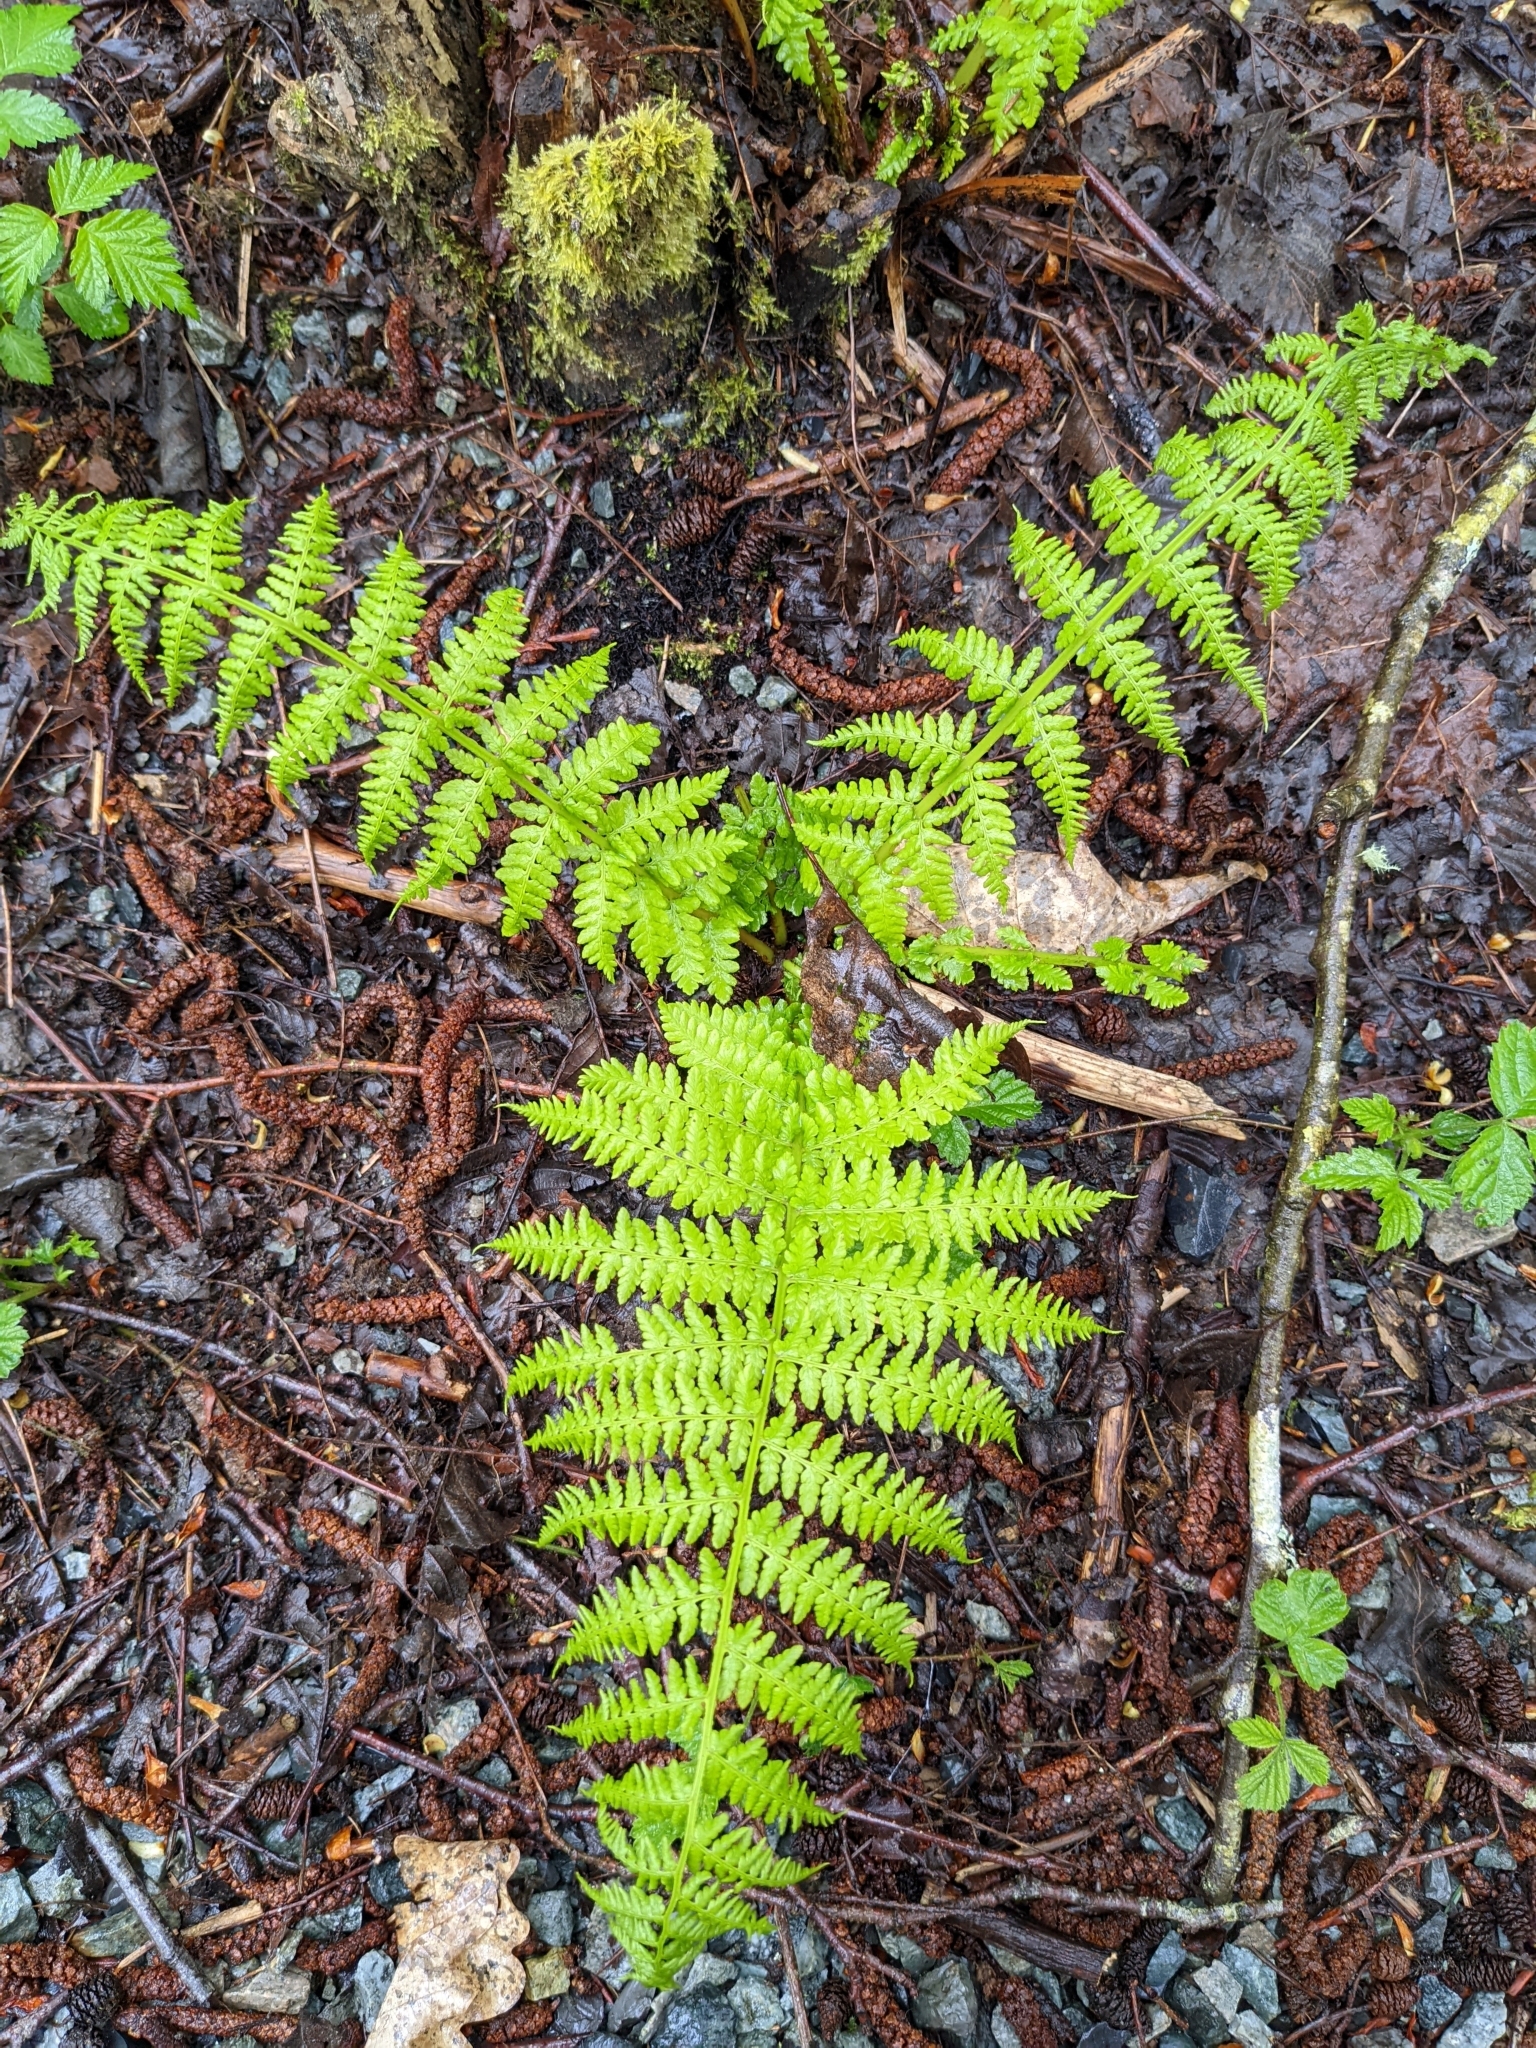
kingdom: Plantae
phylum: Tracheophyta
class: Polypodiopsida
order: Polypodiales
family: Athyriaceae
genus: Athyrium
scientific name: Athyrium filix-femina
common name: Lady fern
